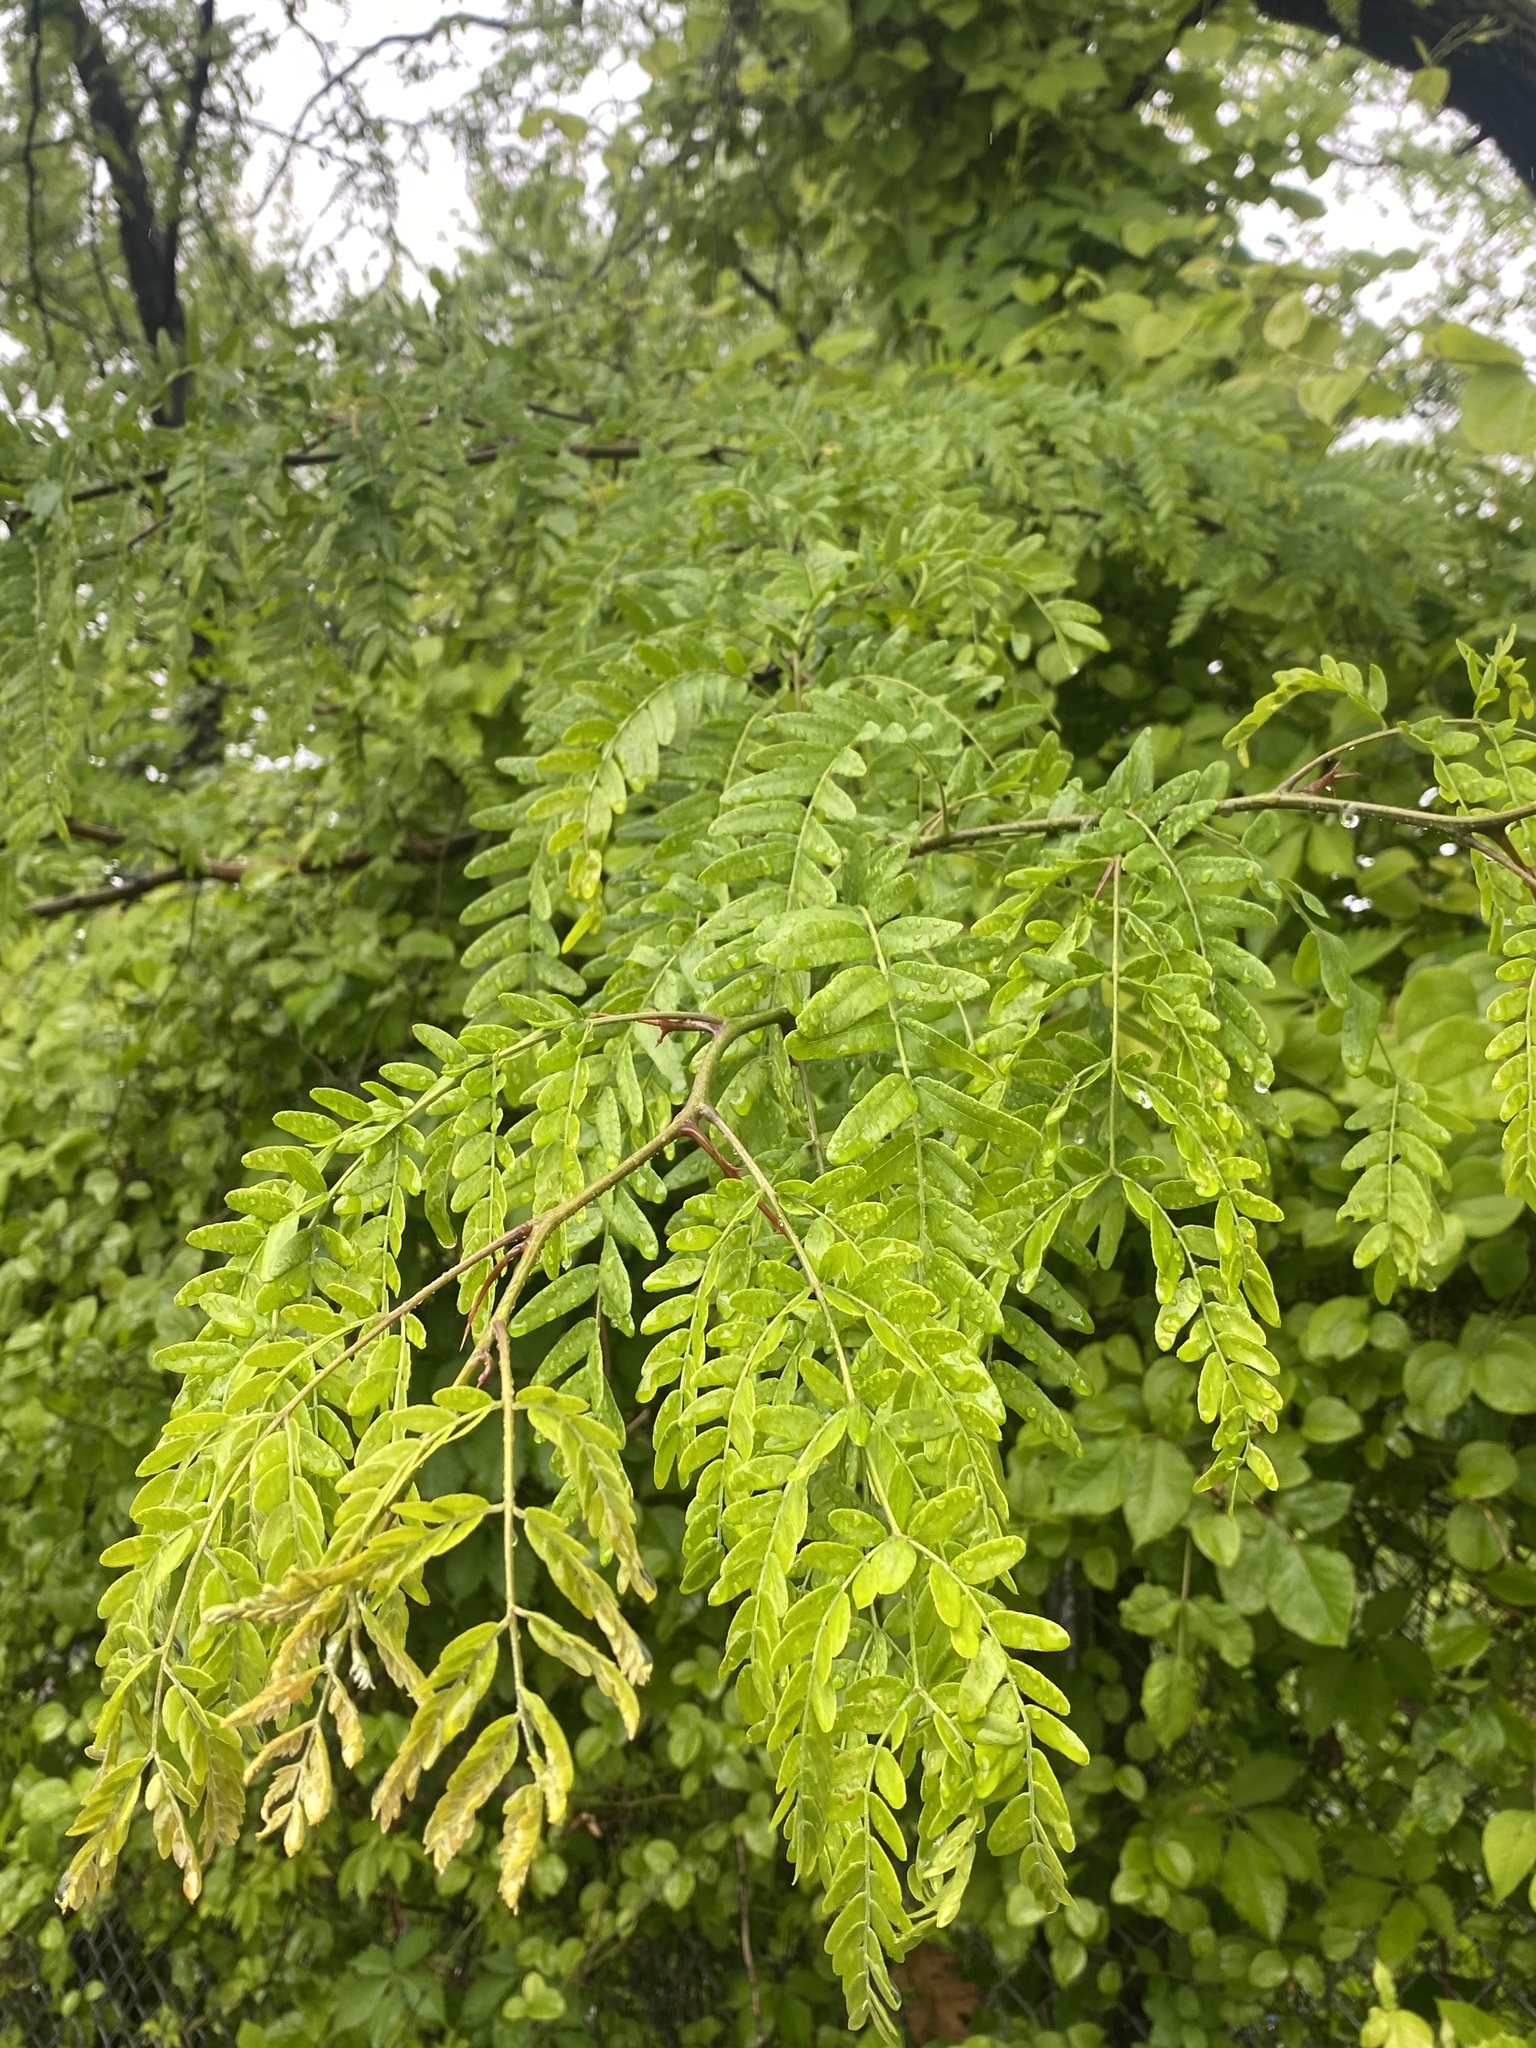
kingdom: Plantae
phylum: Tracheophyta
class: Magnoliopsida
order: Fabales
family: Fabaceae
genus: Gleditsia
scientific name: Gleditsia triacanthos
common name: Common honeylocust
